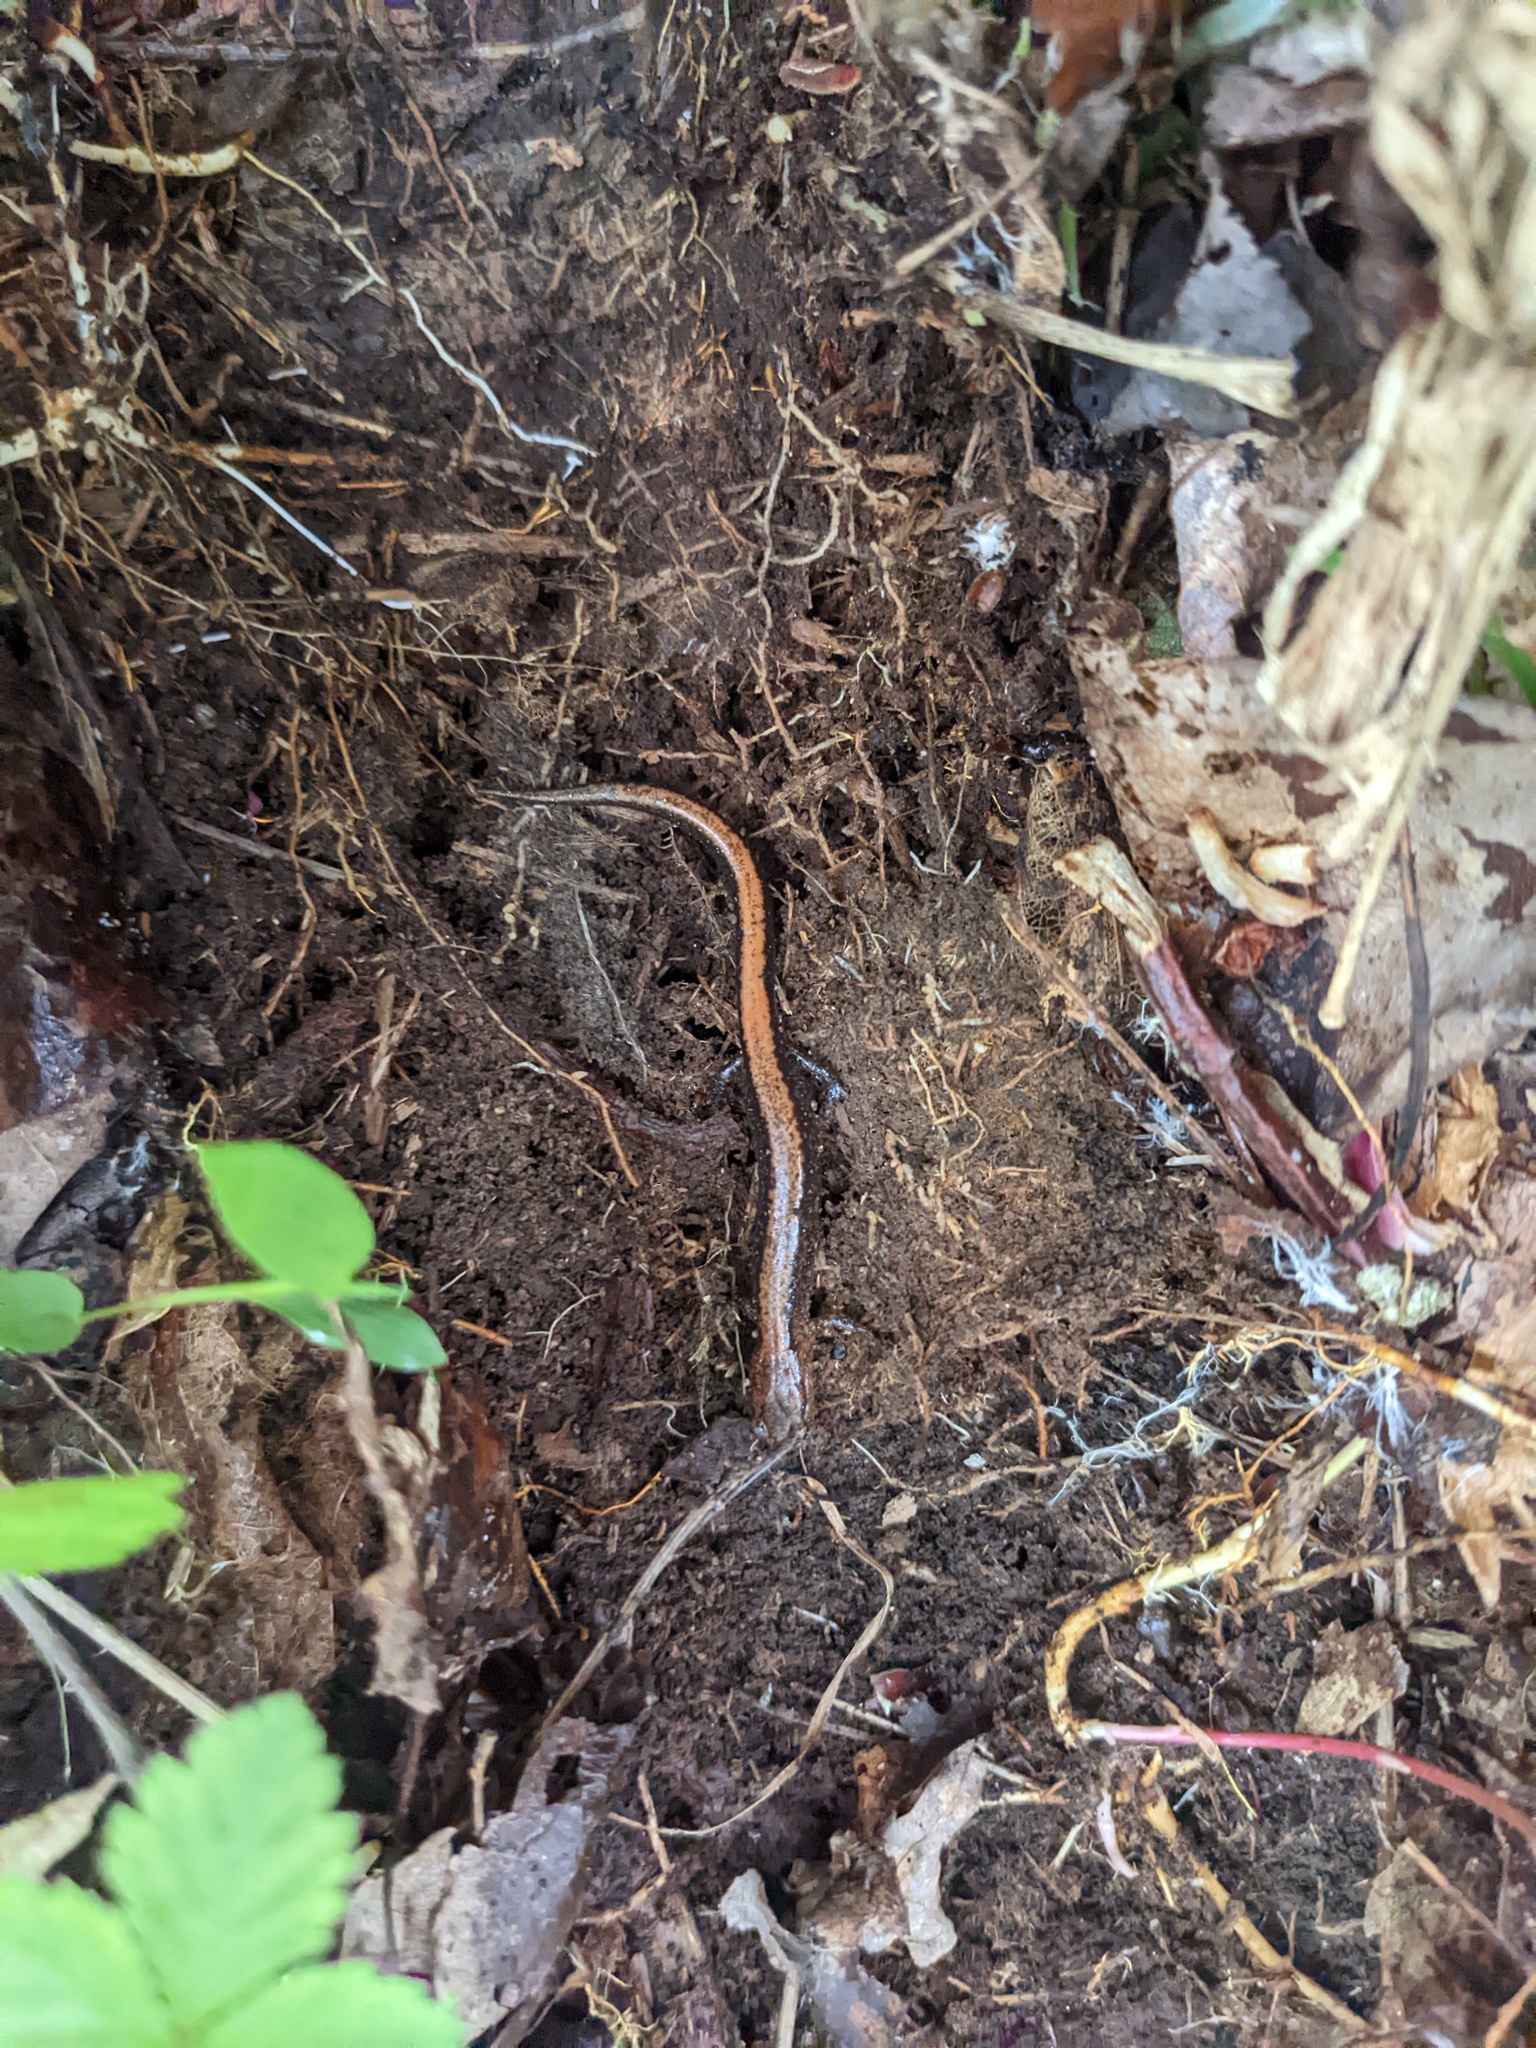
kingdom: Animalia
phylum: Chordata
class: Amphibia
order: Caudata
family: Plethodontidae
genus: Plethodon
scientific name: Plethodon cinereus
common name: Redback salamander
